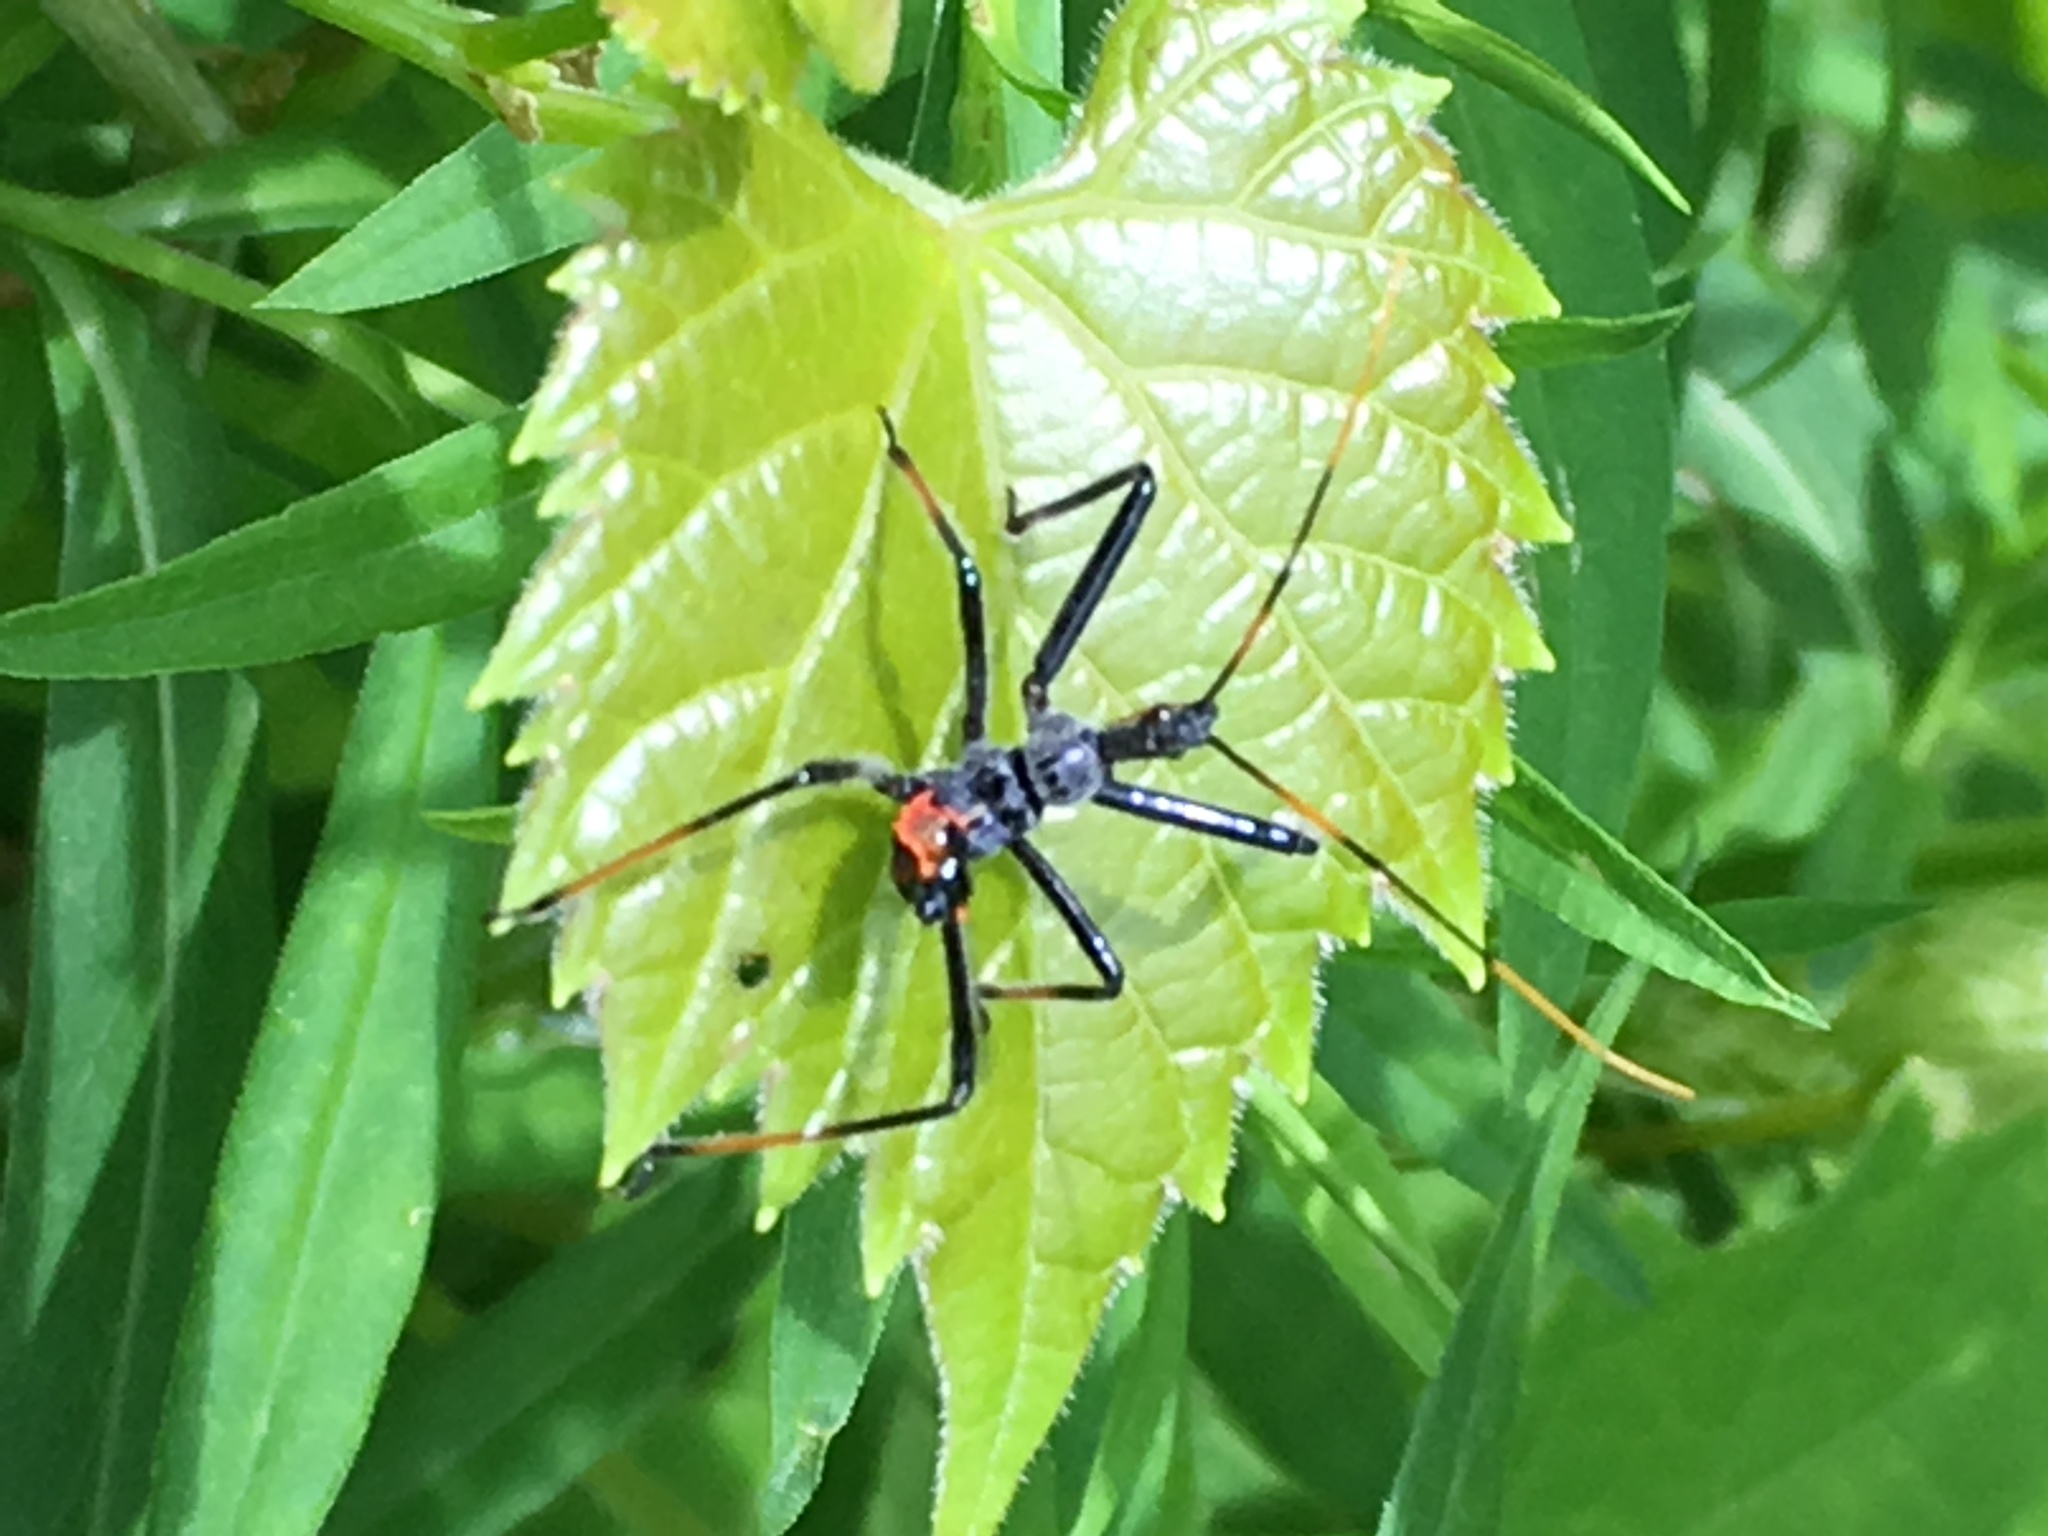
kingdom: Animalia
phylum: Arthropoda
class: Insecta
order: Hemiptera
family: Reduviidae
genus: Arilus
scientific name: Arilus cristatus
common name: North american wheel bug
